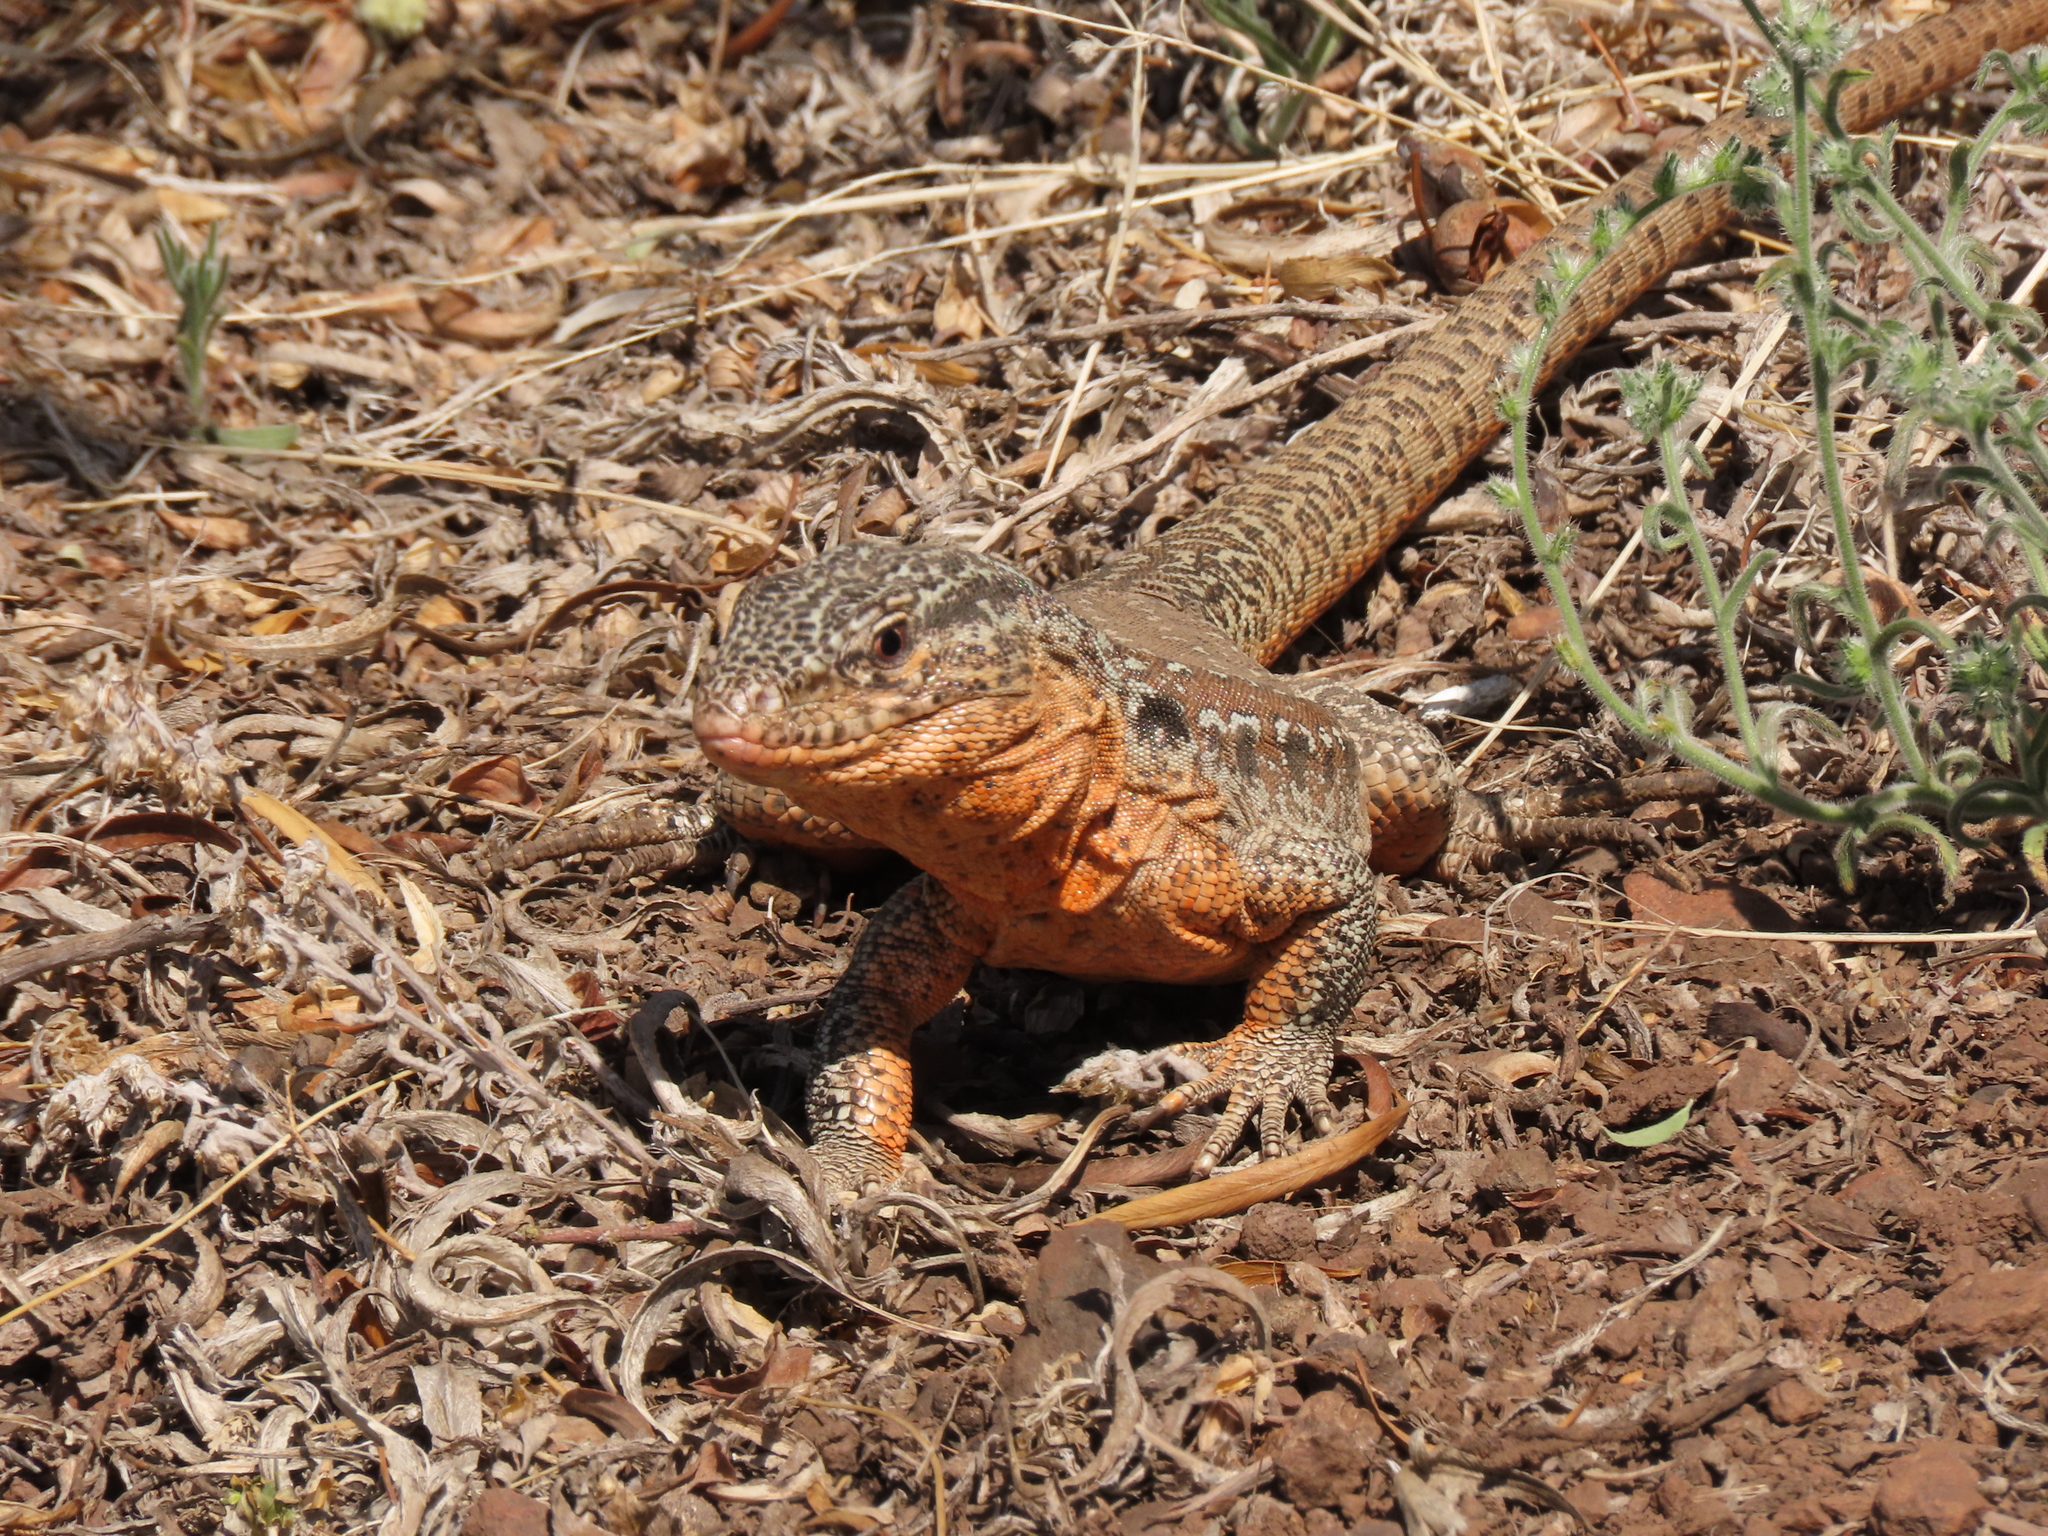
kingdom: Animalia
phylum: Chordata
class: Squamata
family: Teiidae
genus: Callopistes
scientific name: Callopistes maculatus
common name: Spotted false monitor
